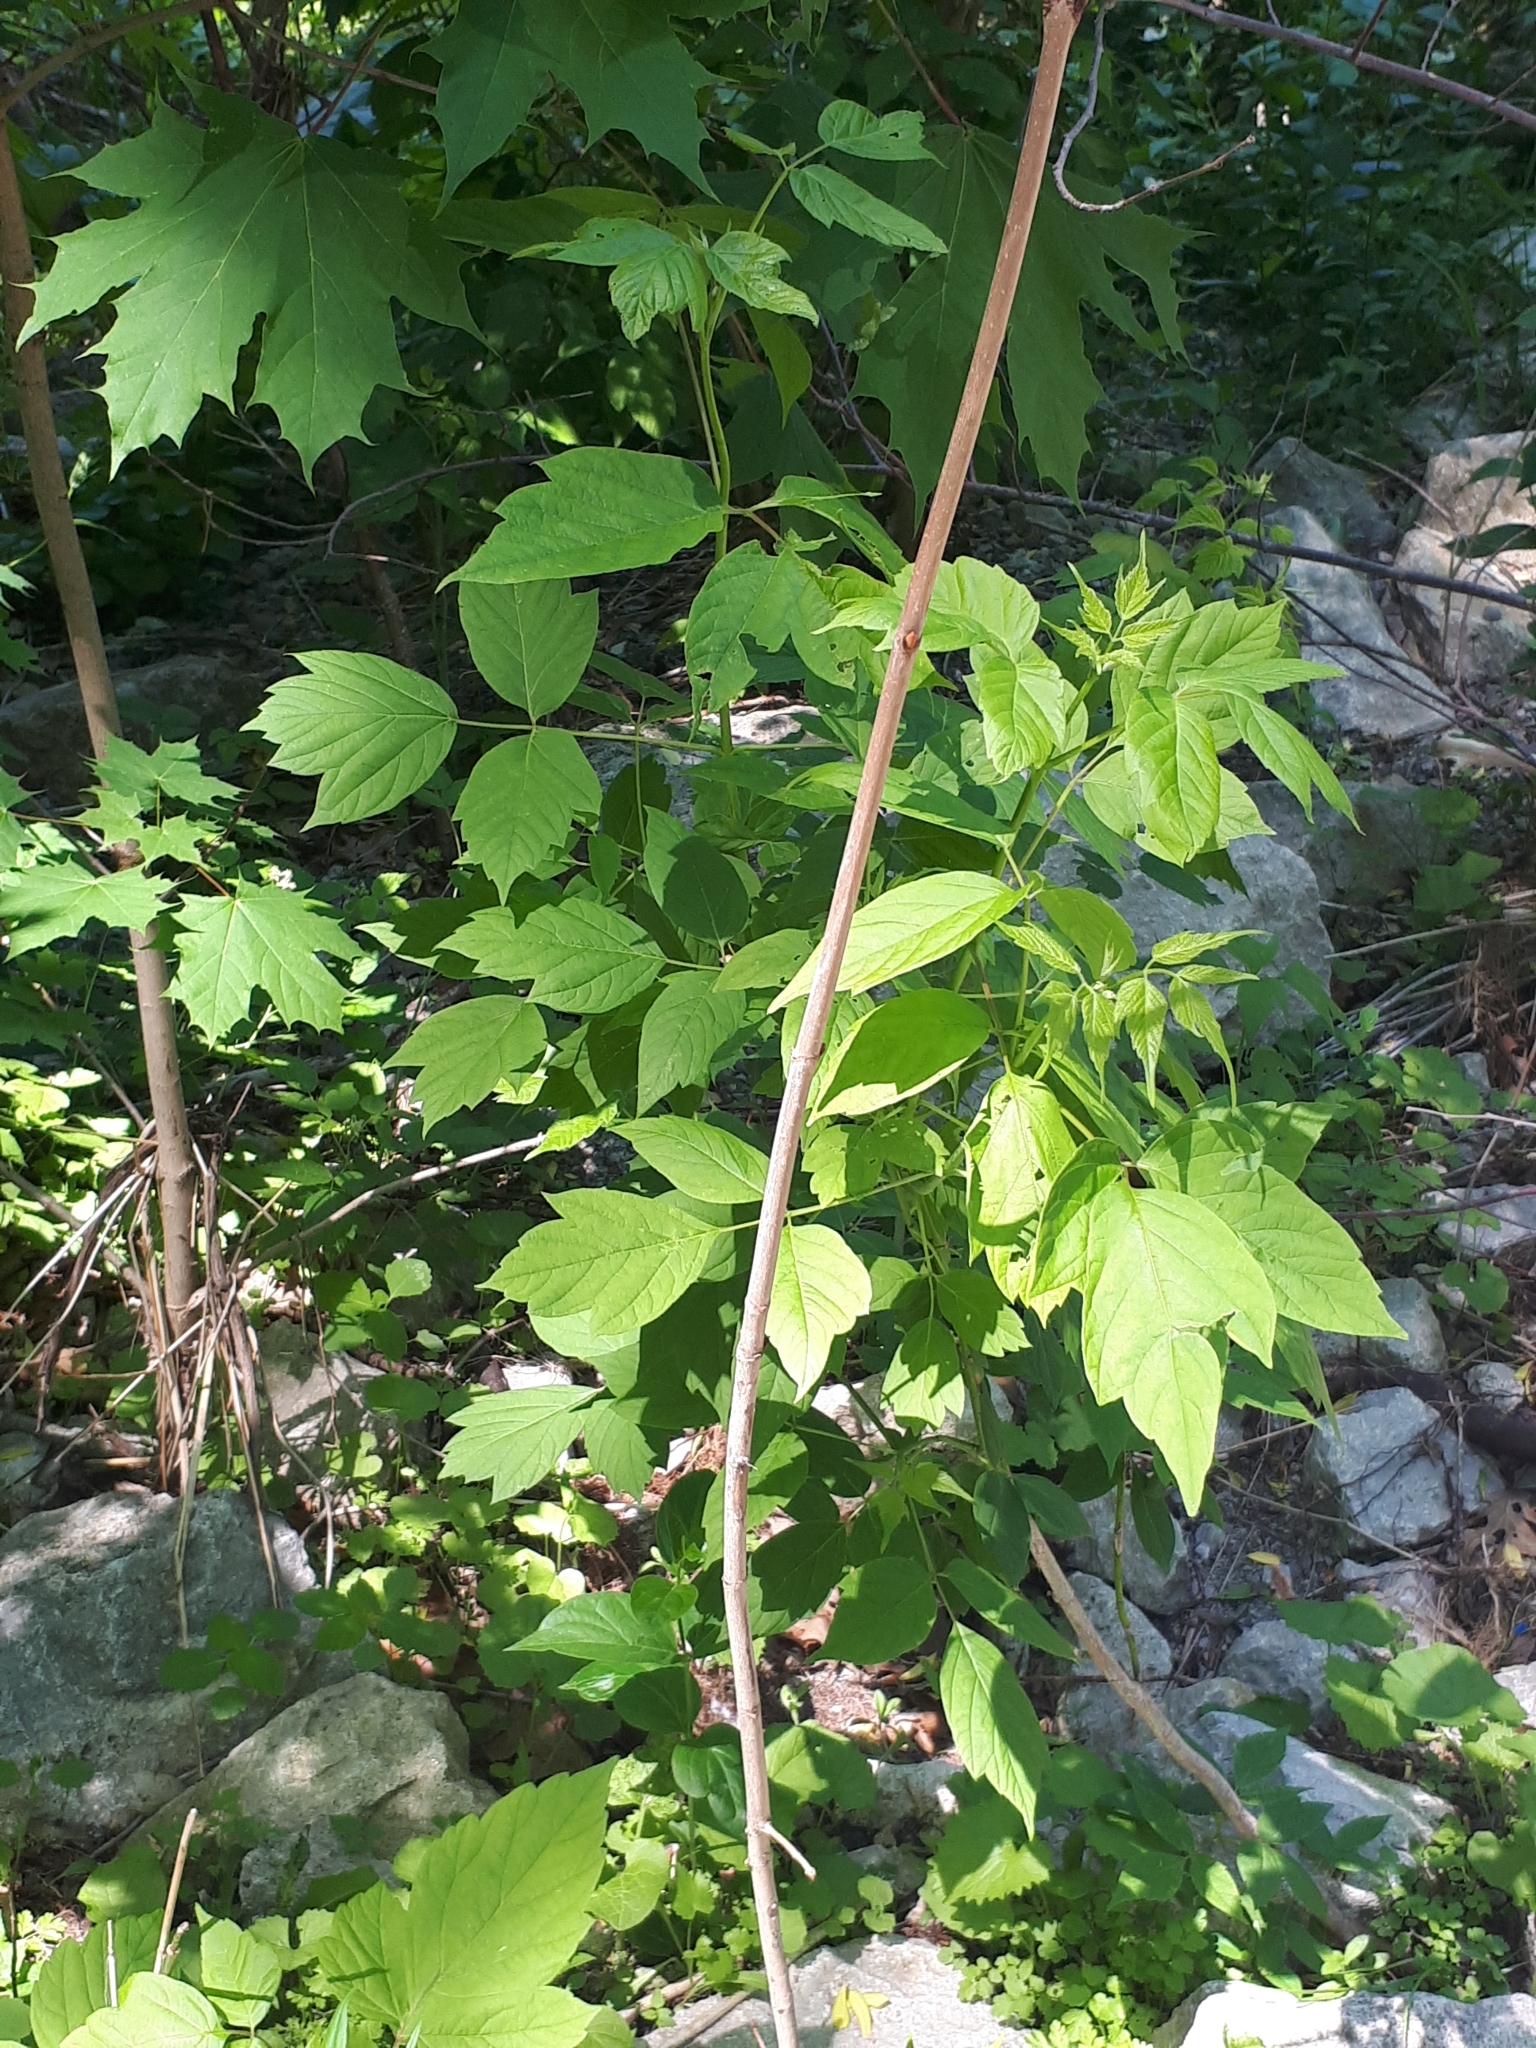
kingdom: Plantae
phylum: Tracheophyta
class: Magnoliopsida
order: Sapindales
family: Sapindaceae
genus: Acer
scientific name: Acer negundo
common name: Ashleaf maple
